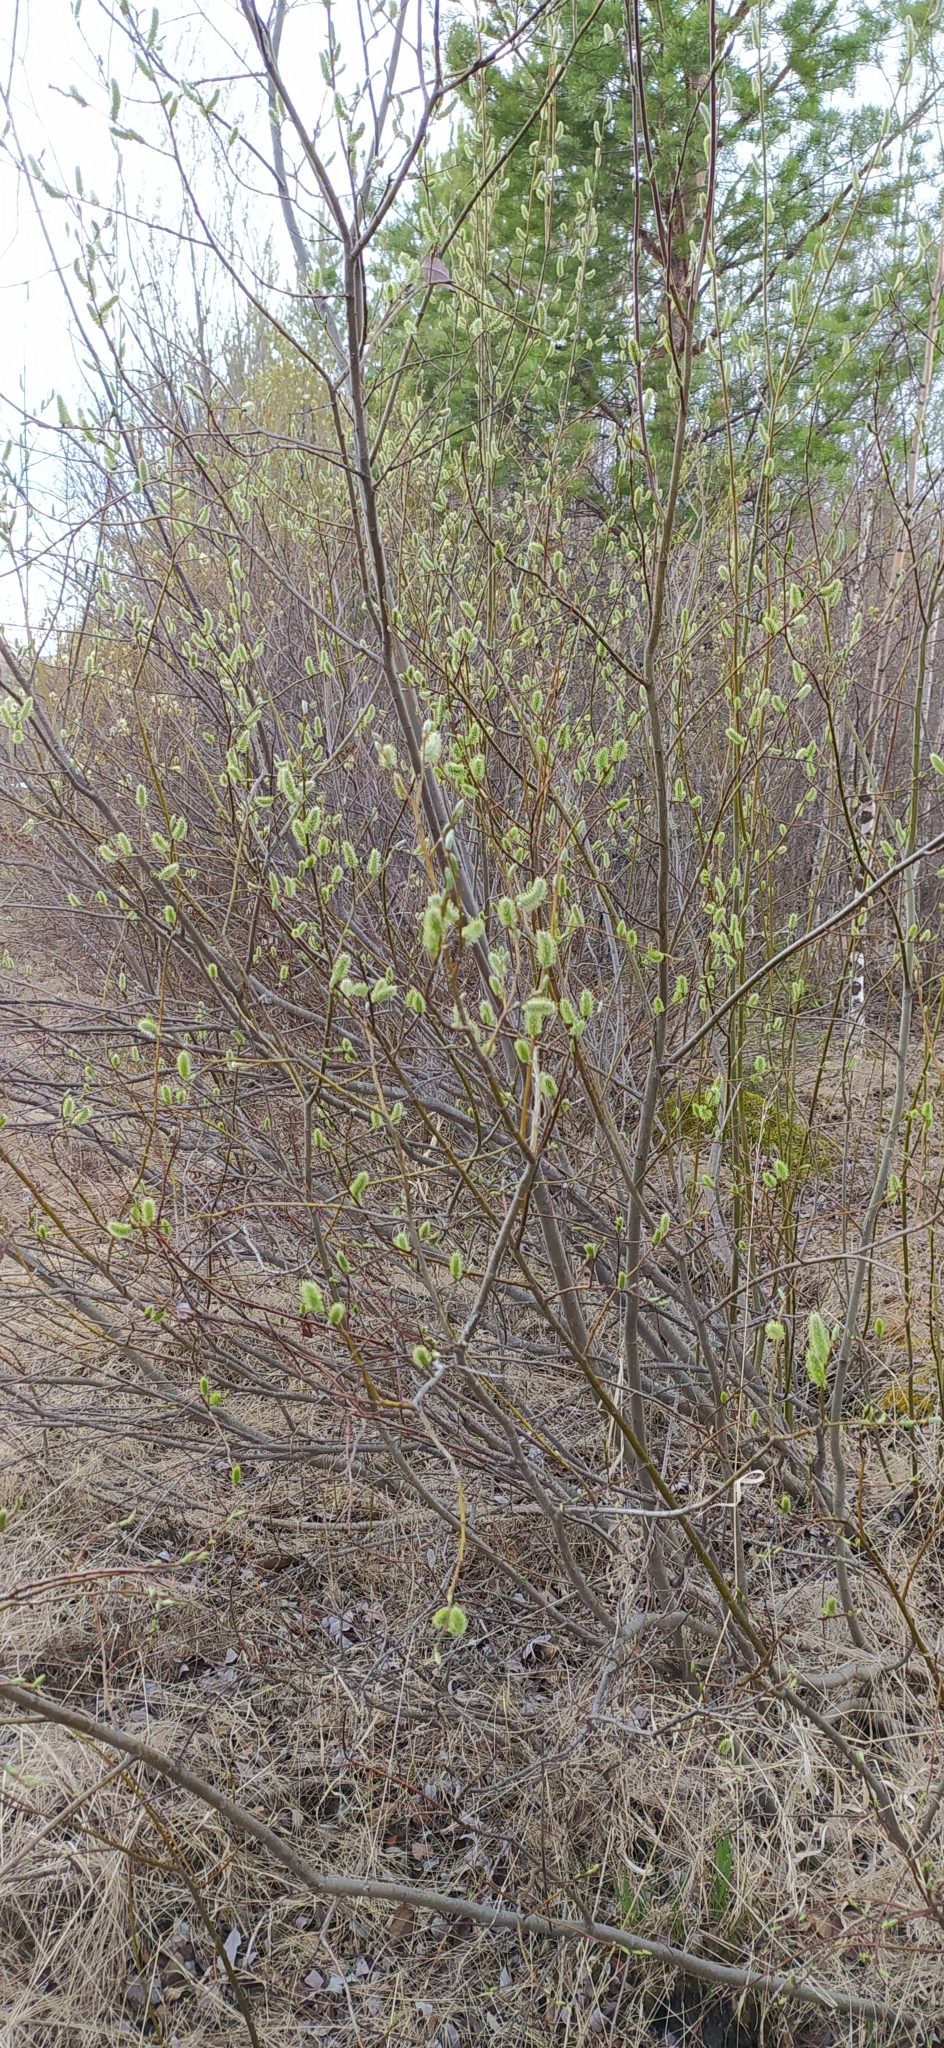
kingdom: Plantae
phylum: Tracheophyta
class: Magnoliopsida
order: Malpighiales
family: Salicaceae
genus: Salix
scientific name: Salix caprea
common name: Goat willow
